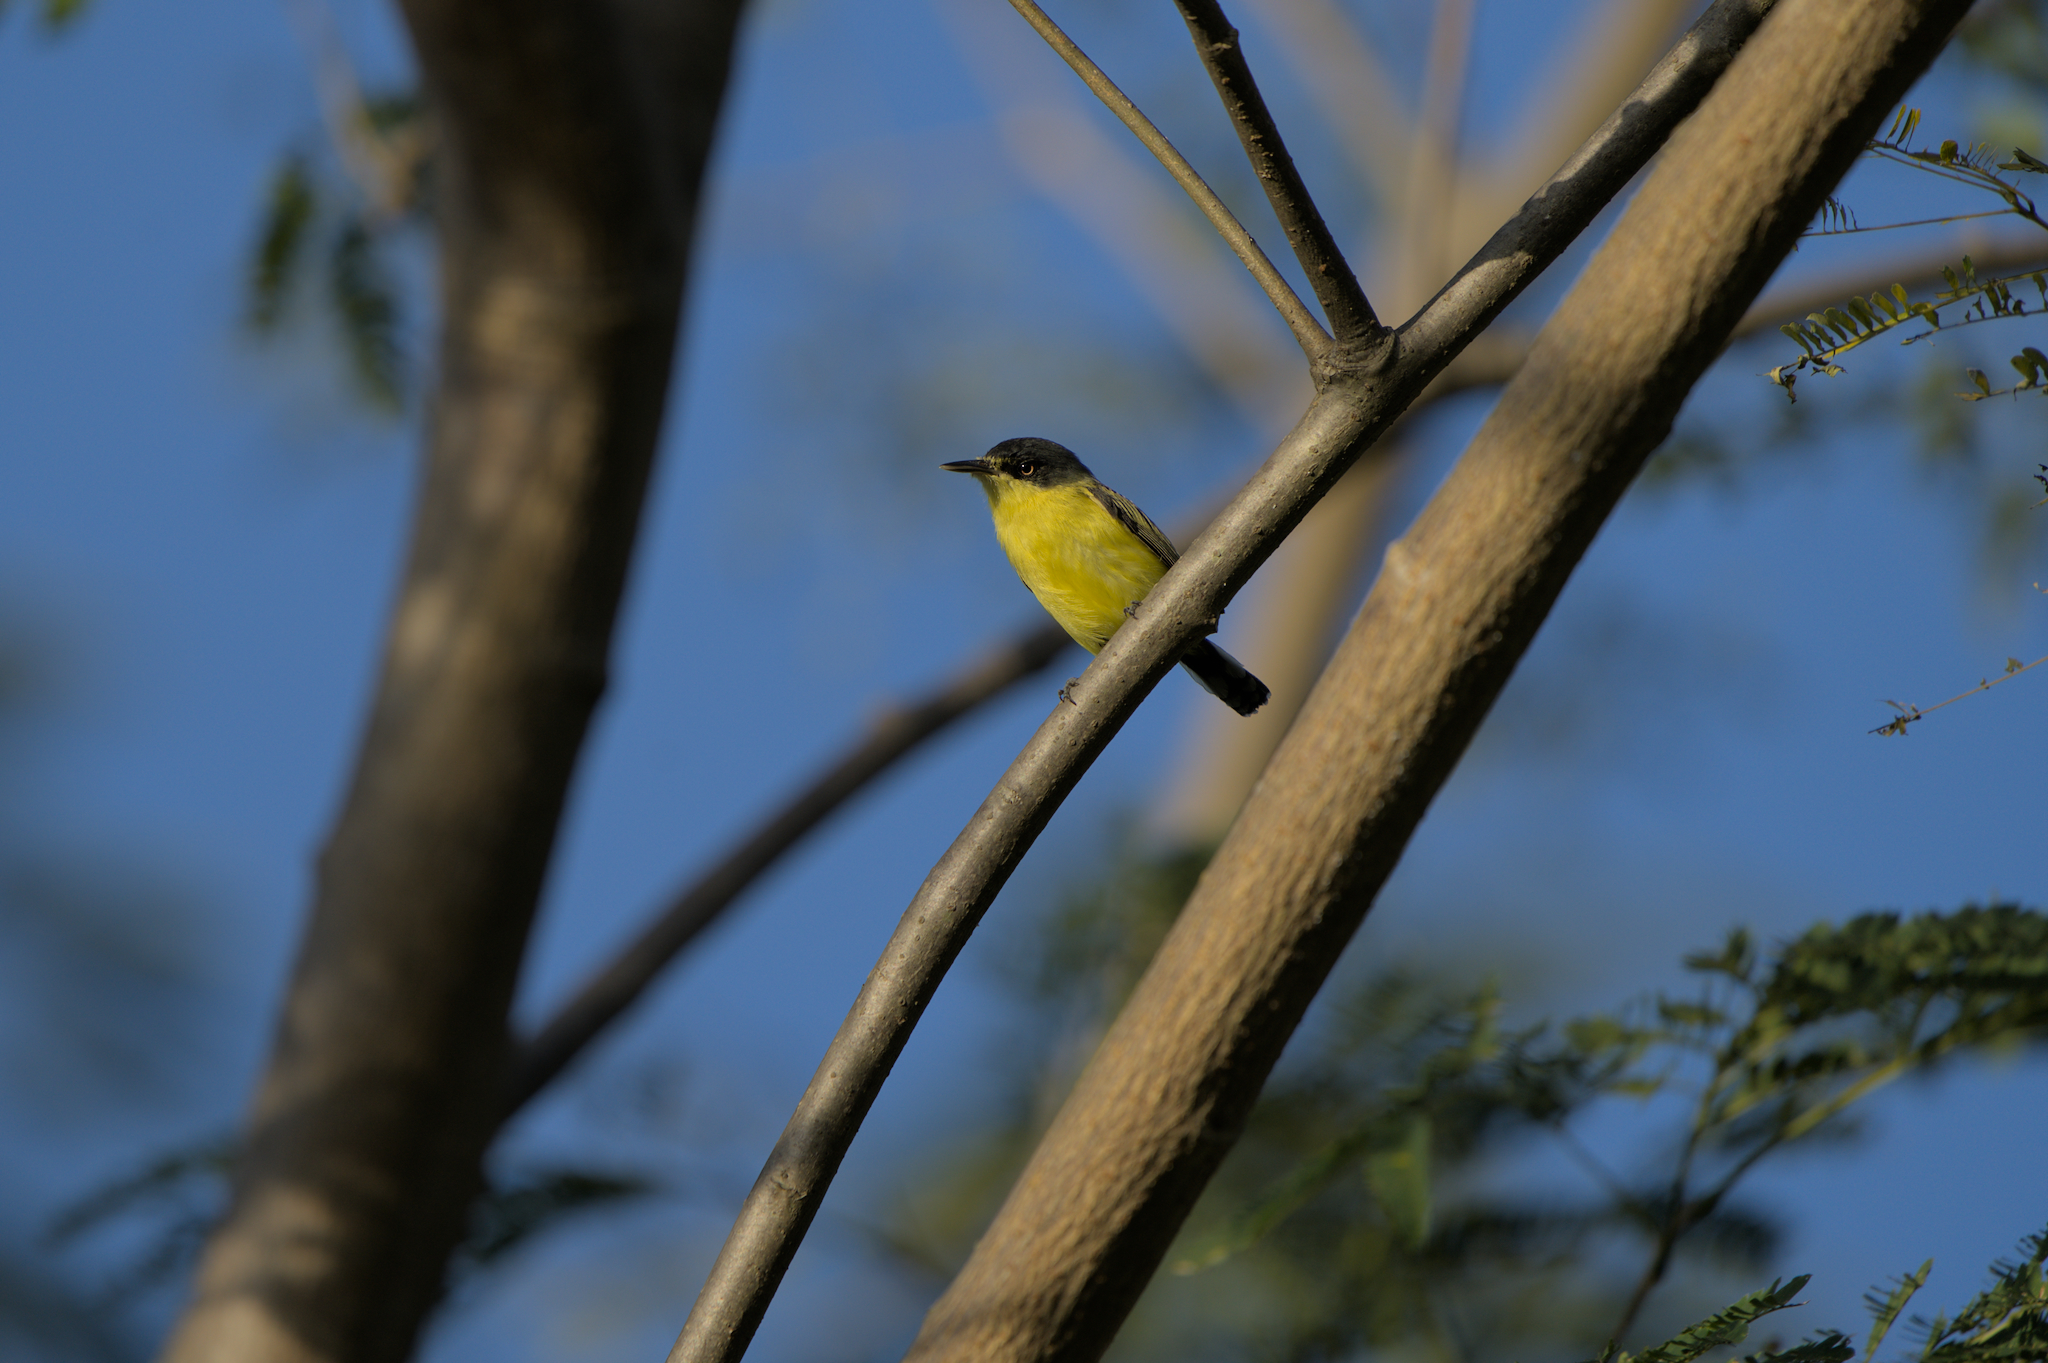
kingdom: Animalia
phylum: Chordata
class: Aves
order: Passeriformes
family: Tyrannidae
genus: Todirostrum
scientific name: Todirostrum cinereum
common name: Common tody-flycatcher
